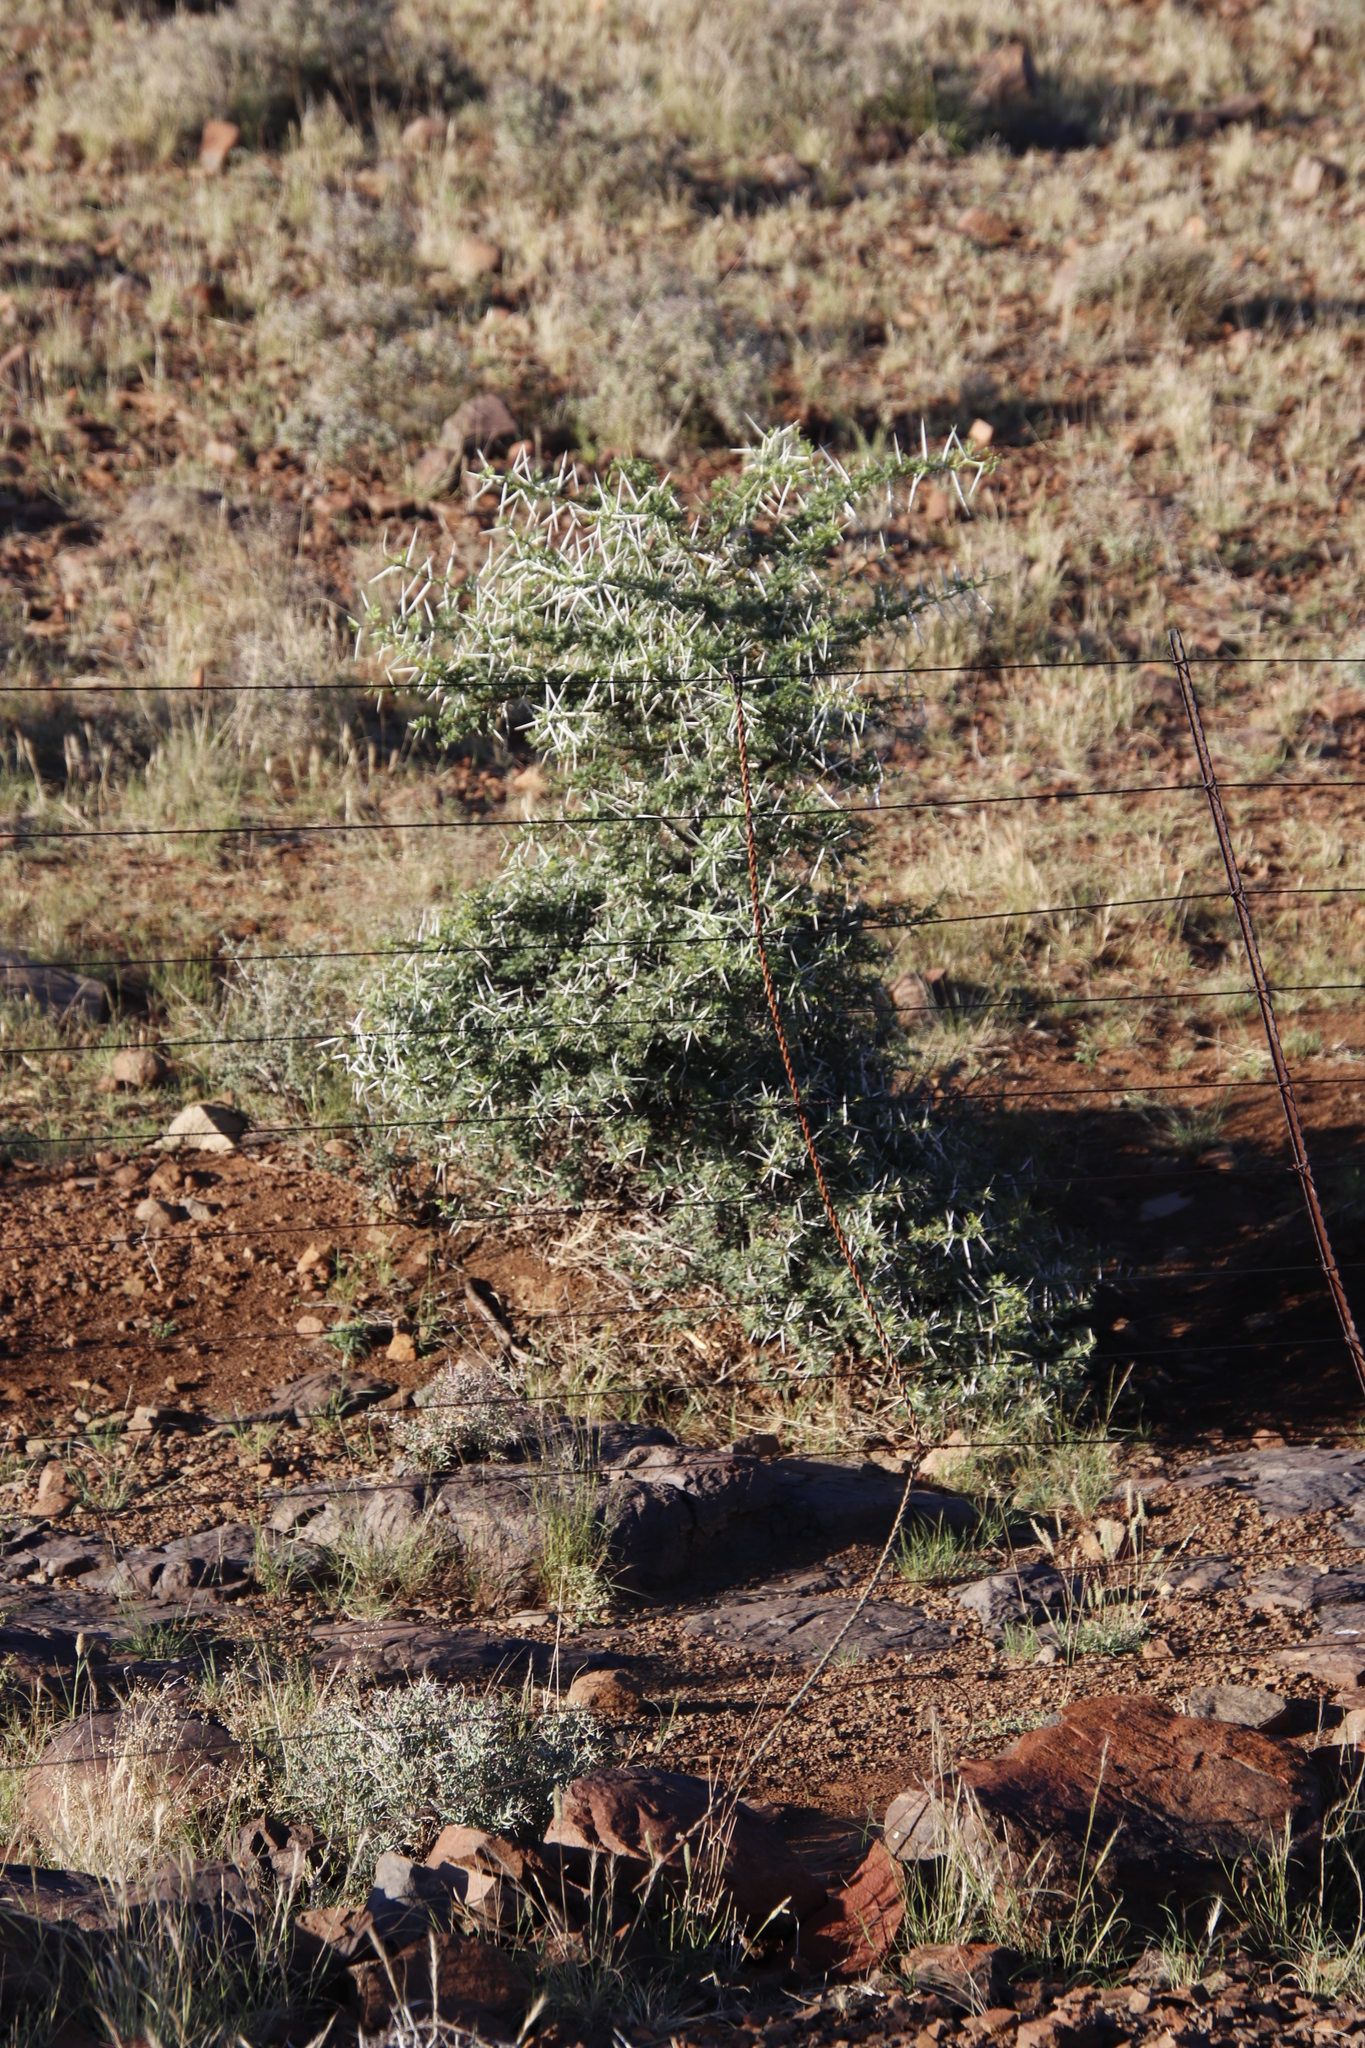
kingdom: Plantae
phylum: Tracheophyta
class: Magnoliopsida
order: Fabales
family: Fabaceae
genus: Vachellia
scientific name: Vachellia karroo
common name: Sweet thorn
